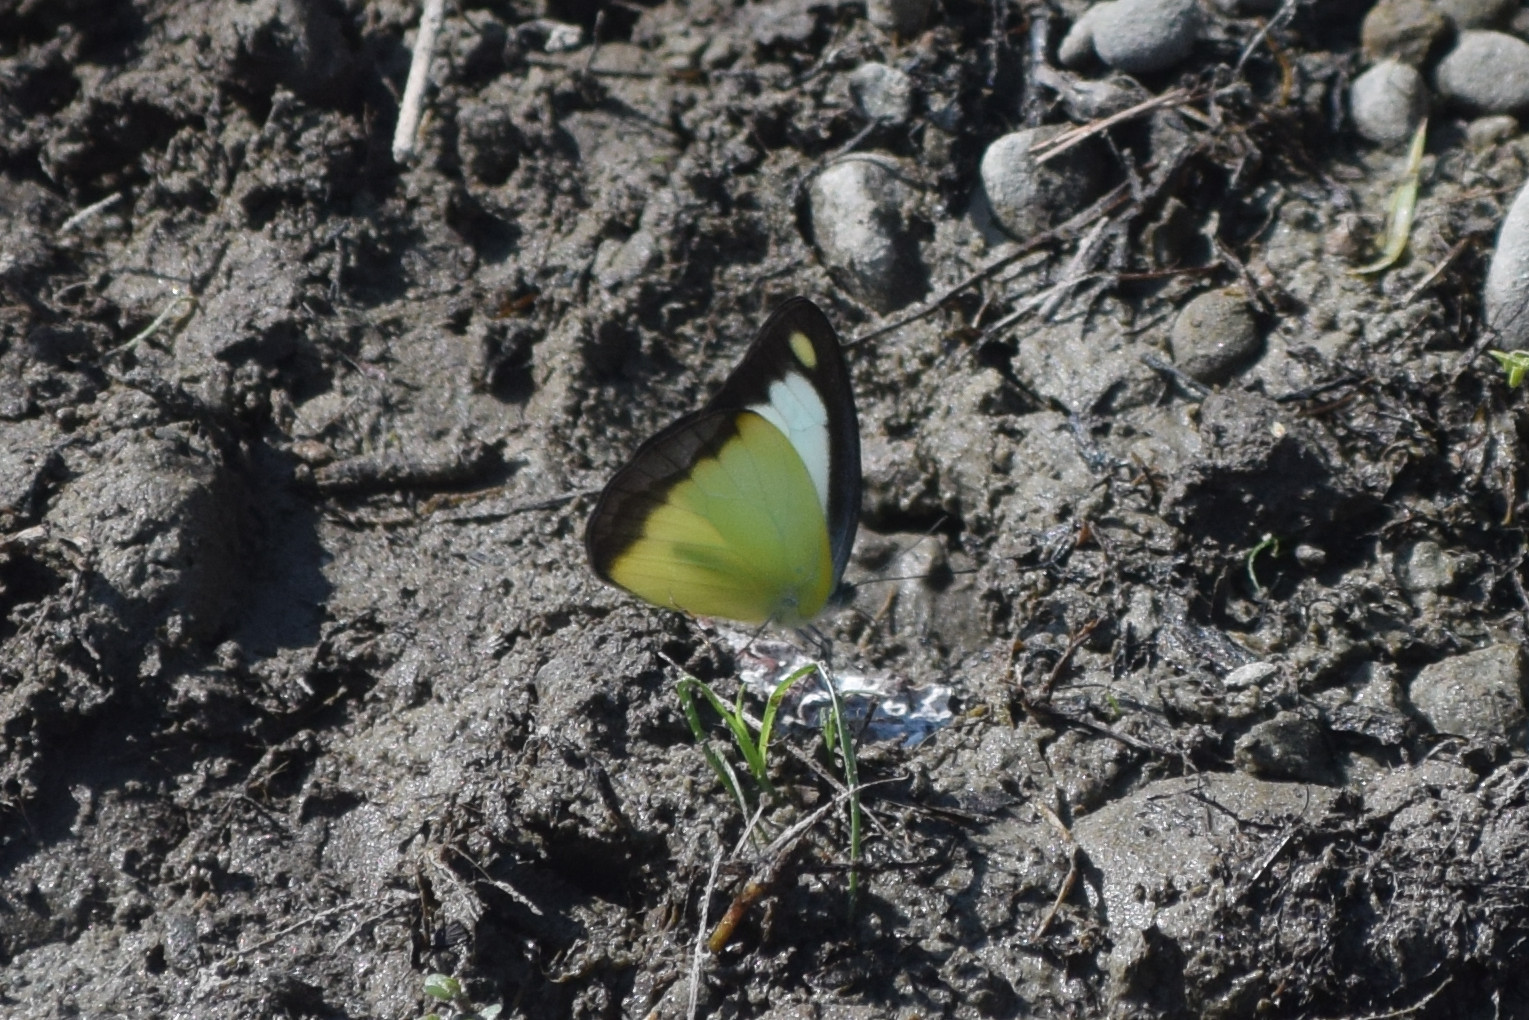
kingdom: Animalia
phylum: Arthropoda
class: Insecta
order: Lepidoptera
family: Pieridae
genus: Appias
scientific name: Appias lyncida
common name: Chocolate albatross
